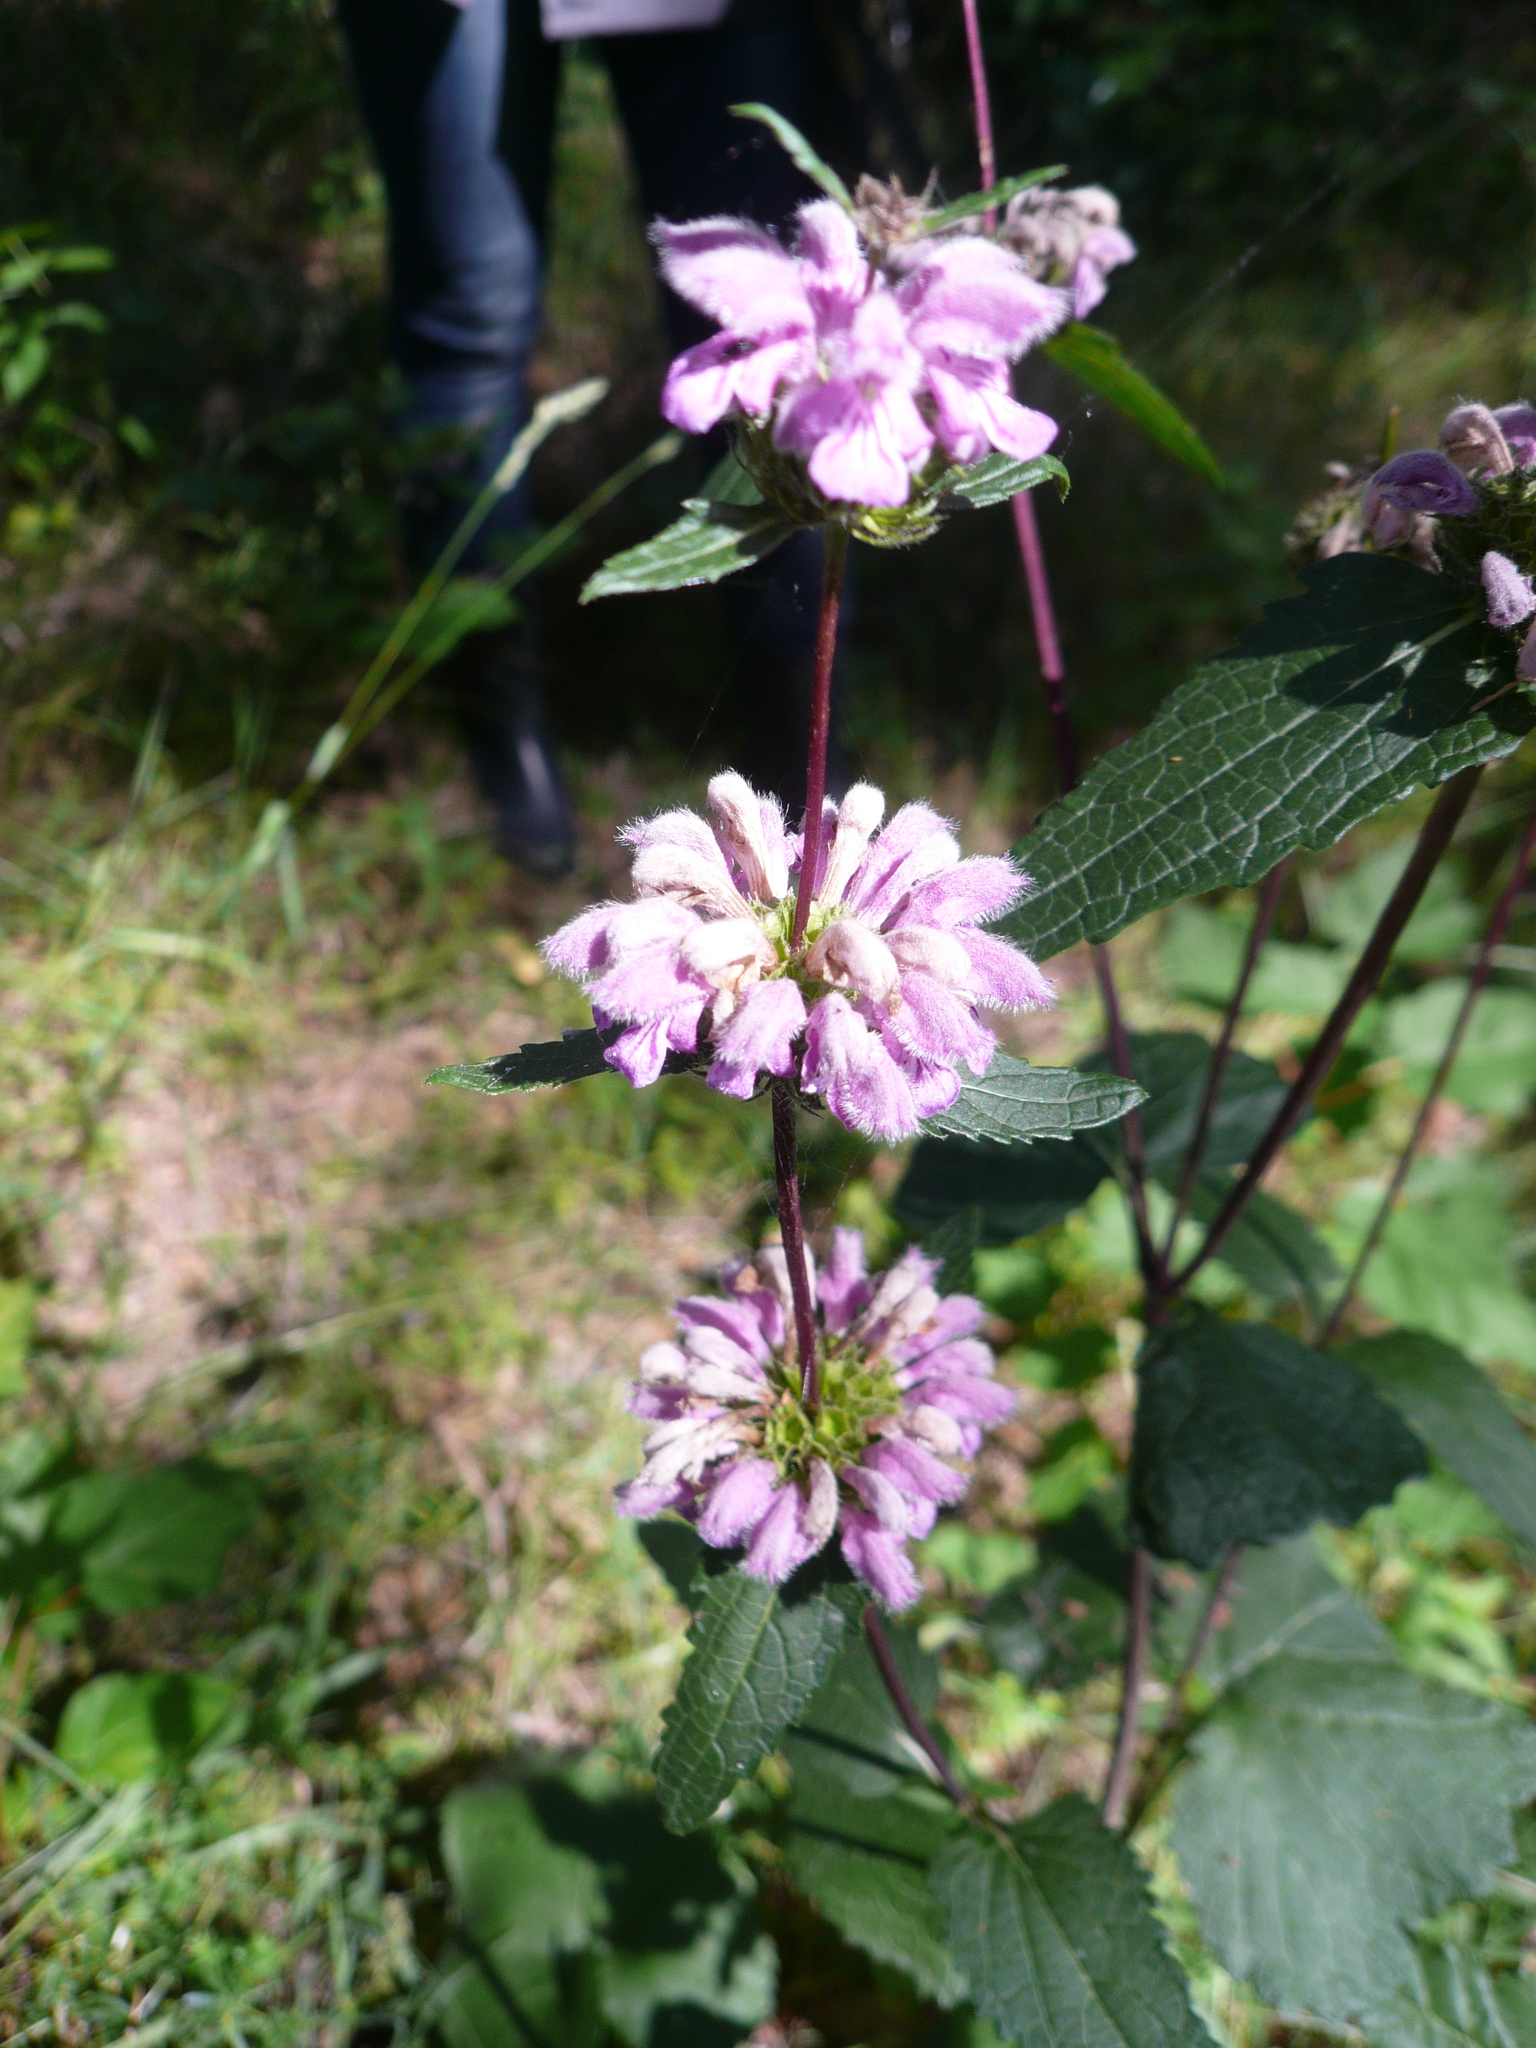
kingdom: Plantae
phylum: Tracheophyta
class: Magnoliopsida
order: Lamiales
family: Lamiaceae
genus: Phlomoides
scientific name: Phlomoides tuberosa
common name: Tuberous jerusalem sage
